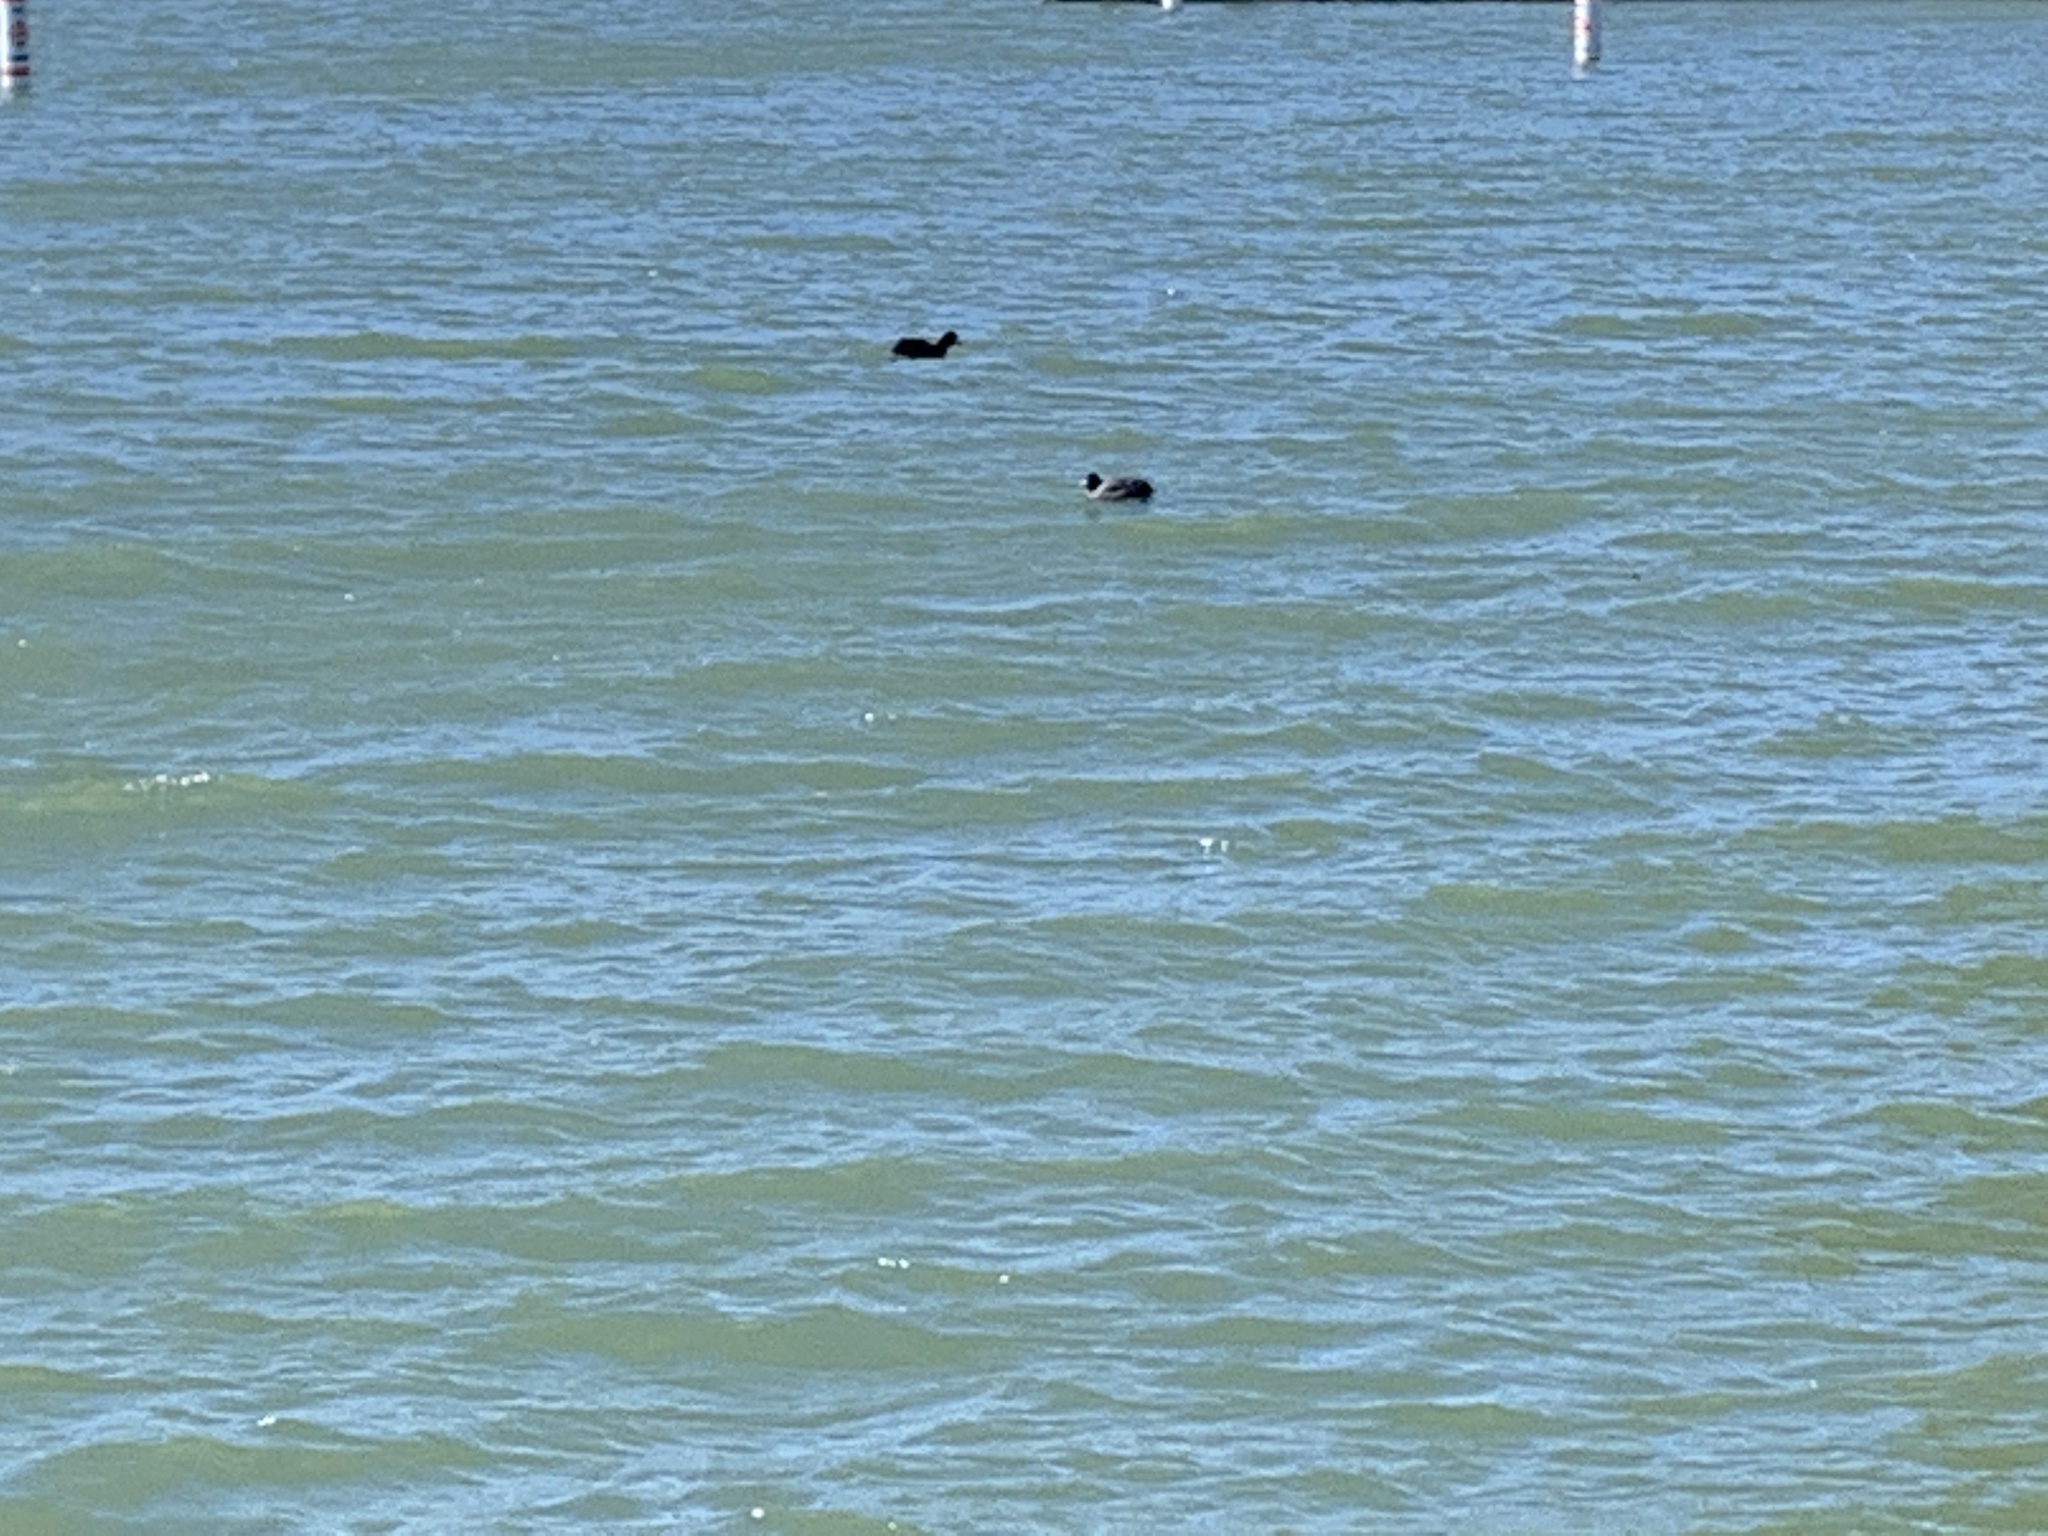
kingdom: Animalia
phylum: Chordata
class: Aves
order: Gruiformes
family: Rallidae
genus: Fulica
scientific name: Fulica americana
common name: American coot
